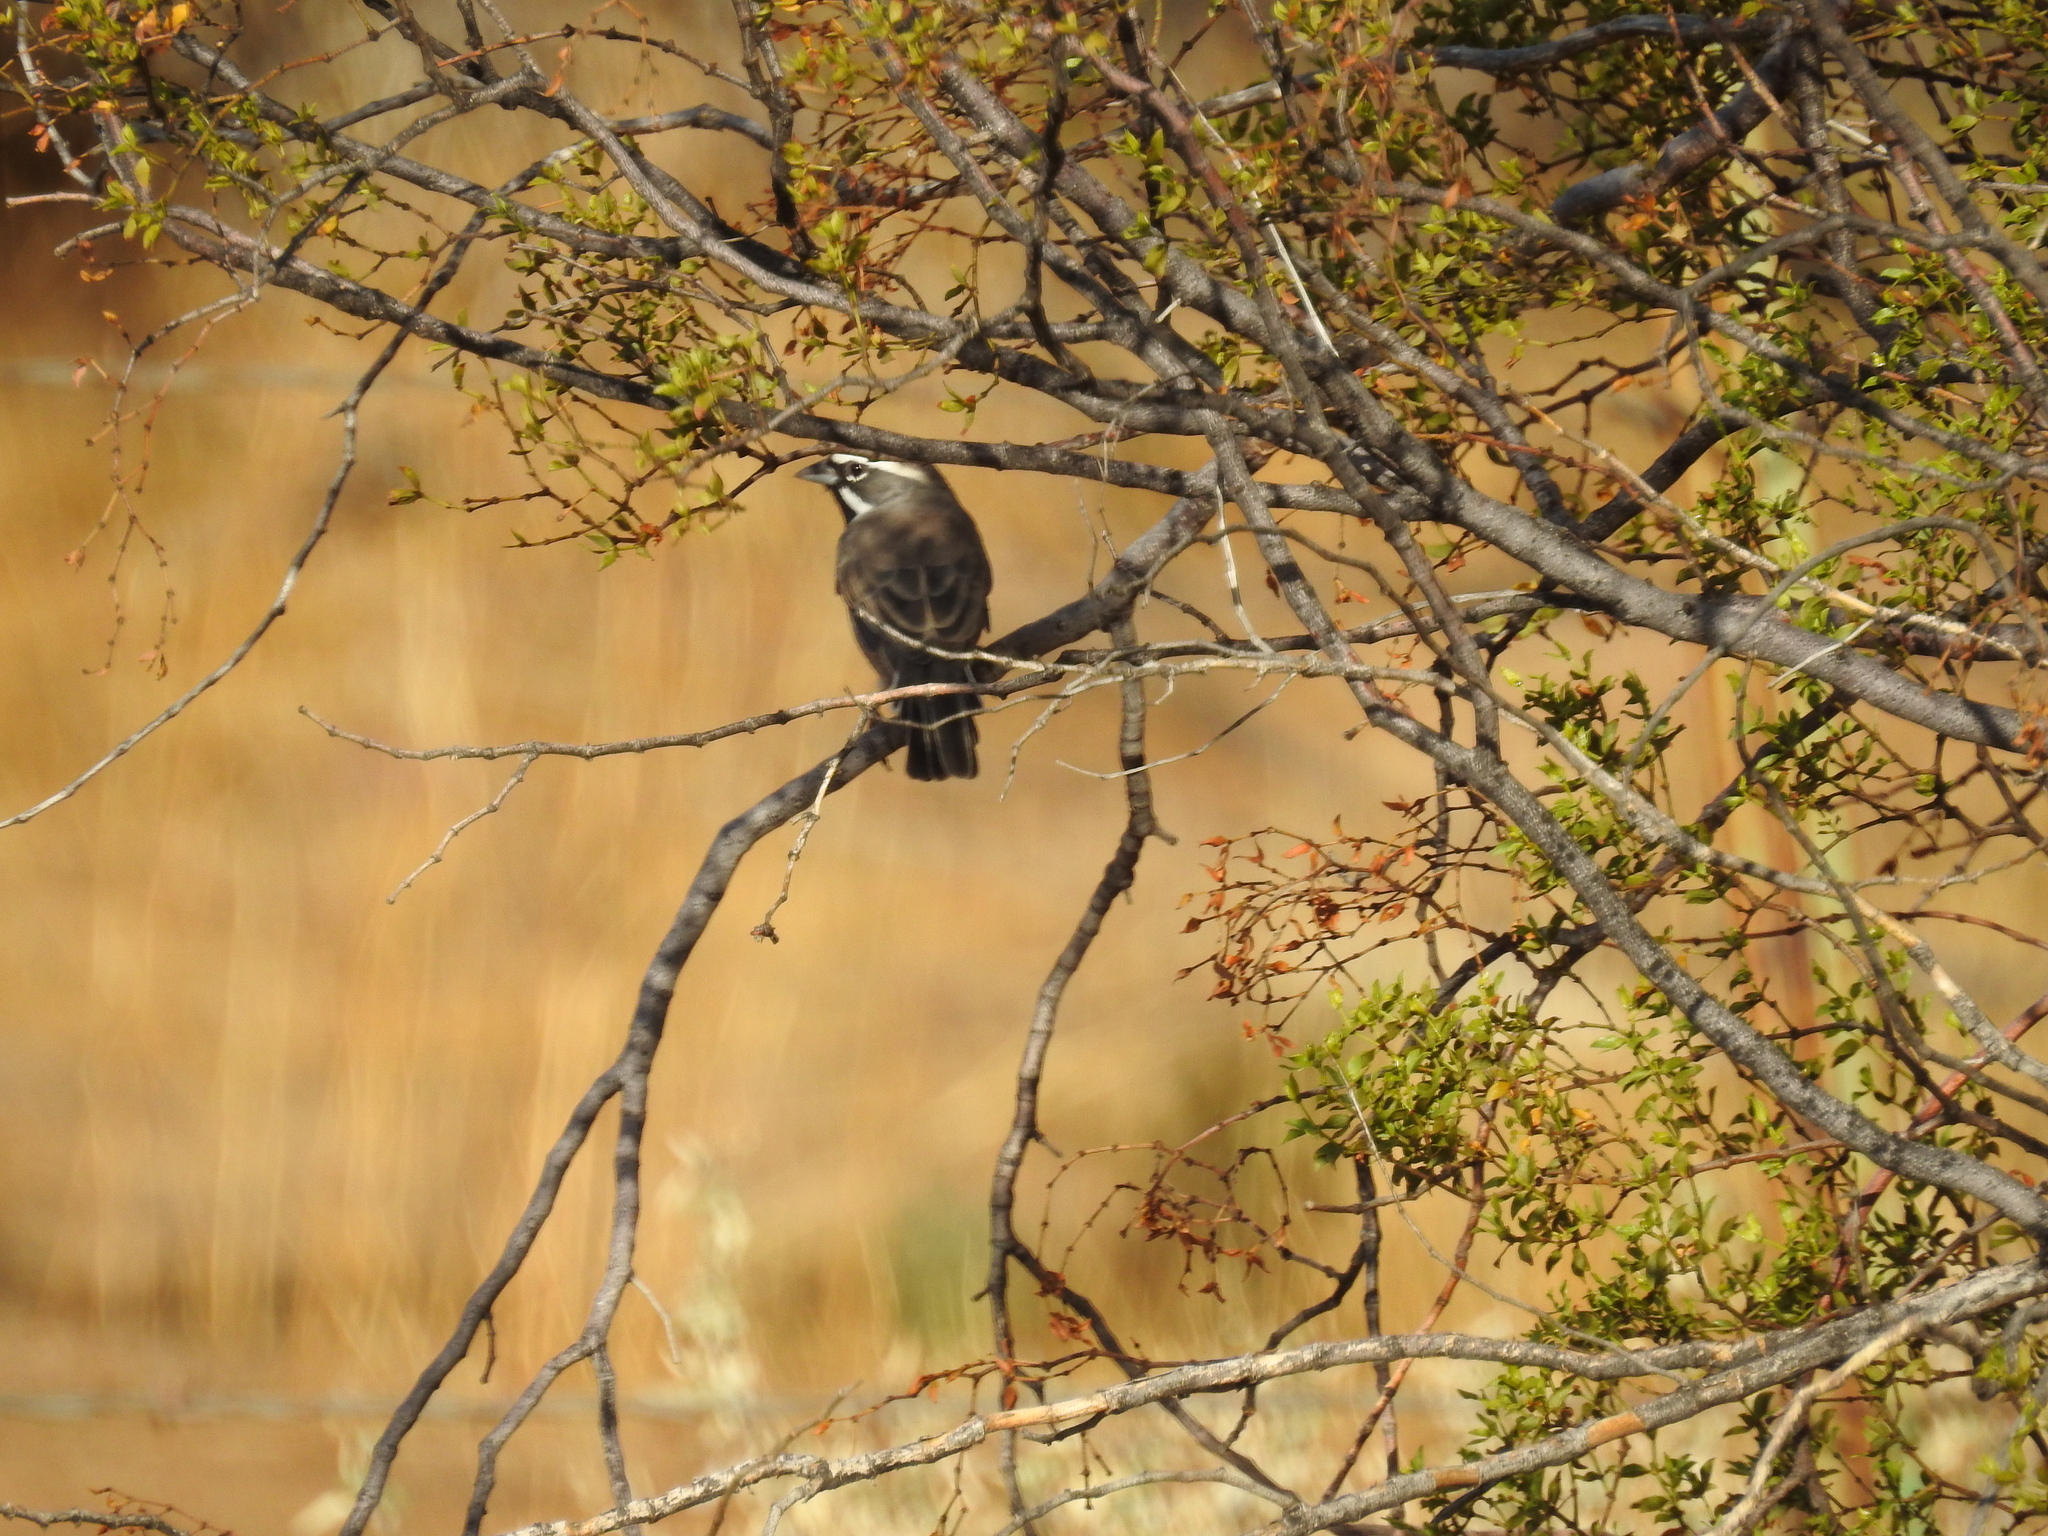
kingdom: Animalia
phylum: Chordata
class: Aves
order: Passeriformes
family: Passerellidae
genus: Amphispiza
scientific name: Amphispiza bilineata
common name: Black-throated sparrow
